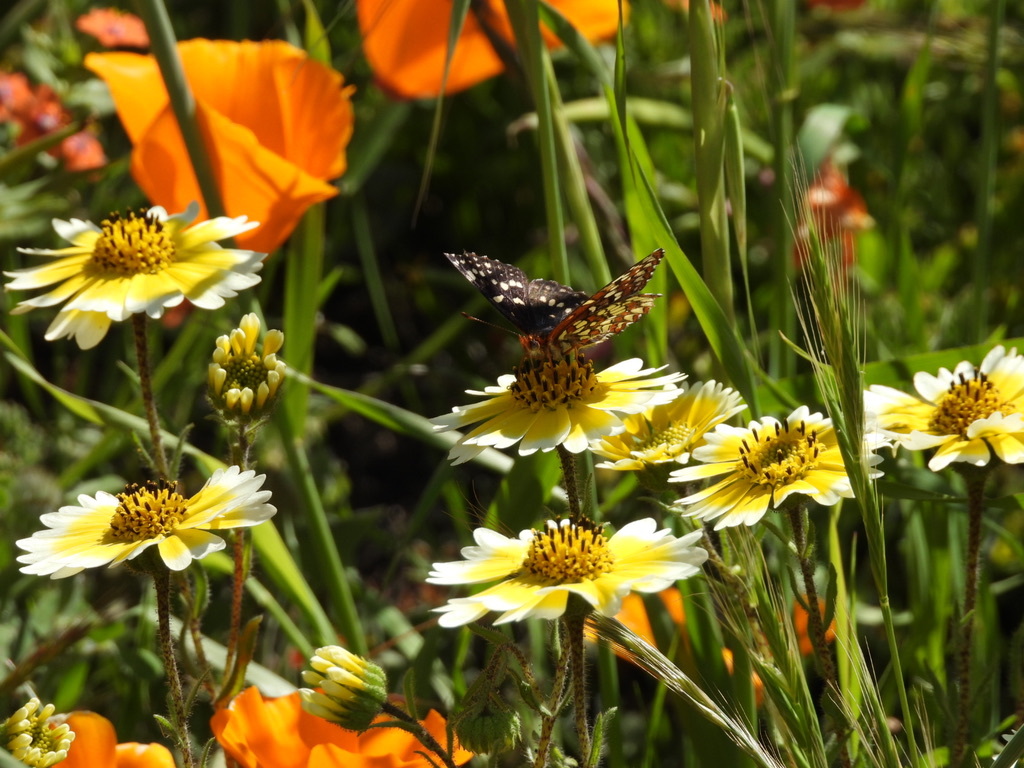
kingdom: Animalia
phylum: Arthropoda
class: Insecta
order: Lepidoptera
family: Nymphalidae
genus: Occidryas
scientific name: Occidryas chalcedona
